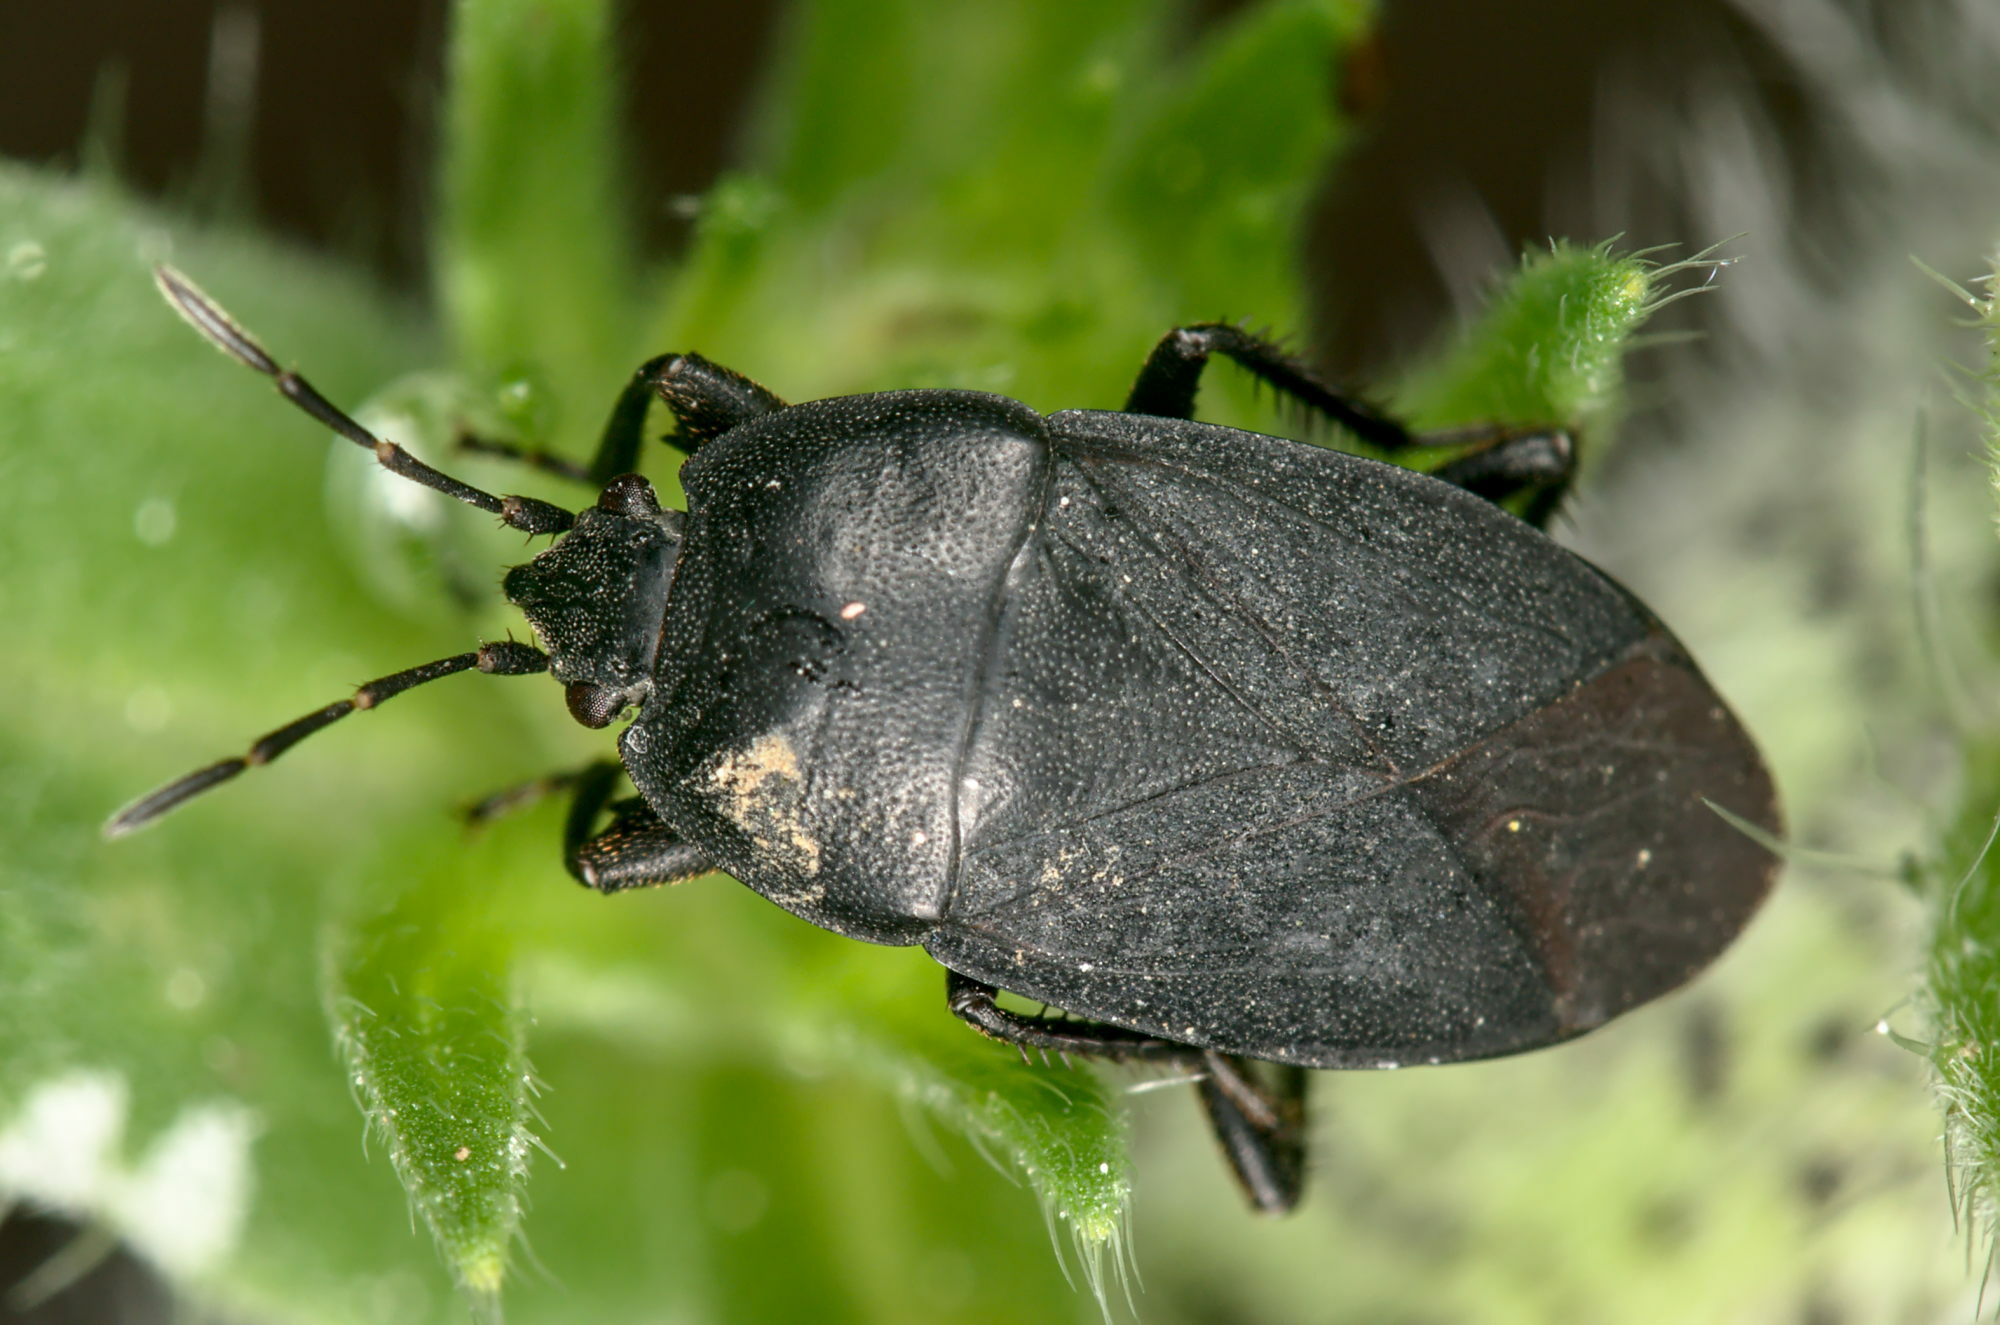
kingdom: Animalia
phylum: Arthropoda
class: Insecta
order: Hemiptera
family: Rhyparochromidae
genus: Aellopus
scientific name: Aellopus atratus
